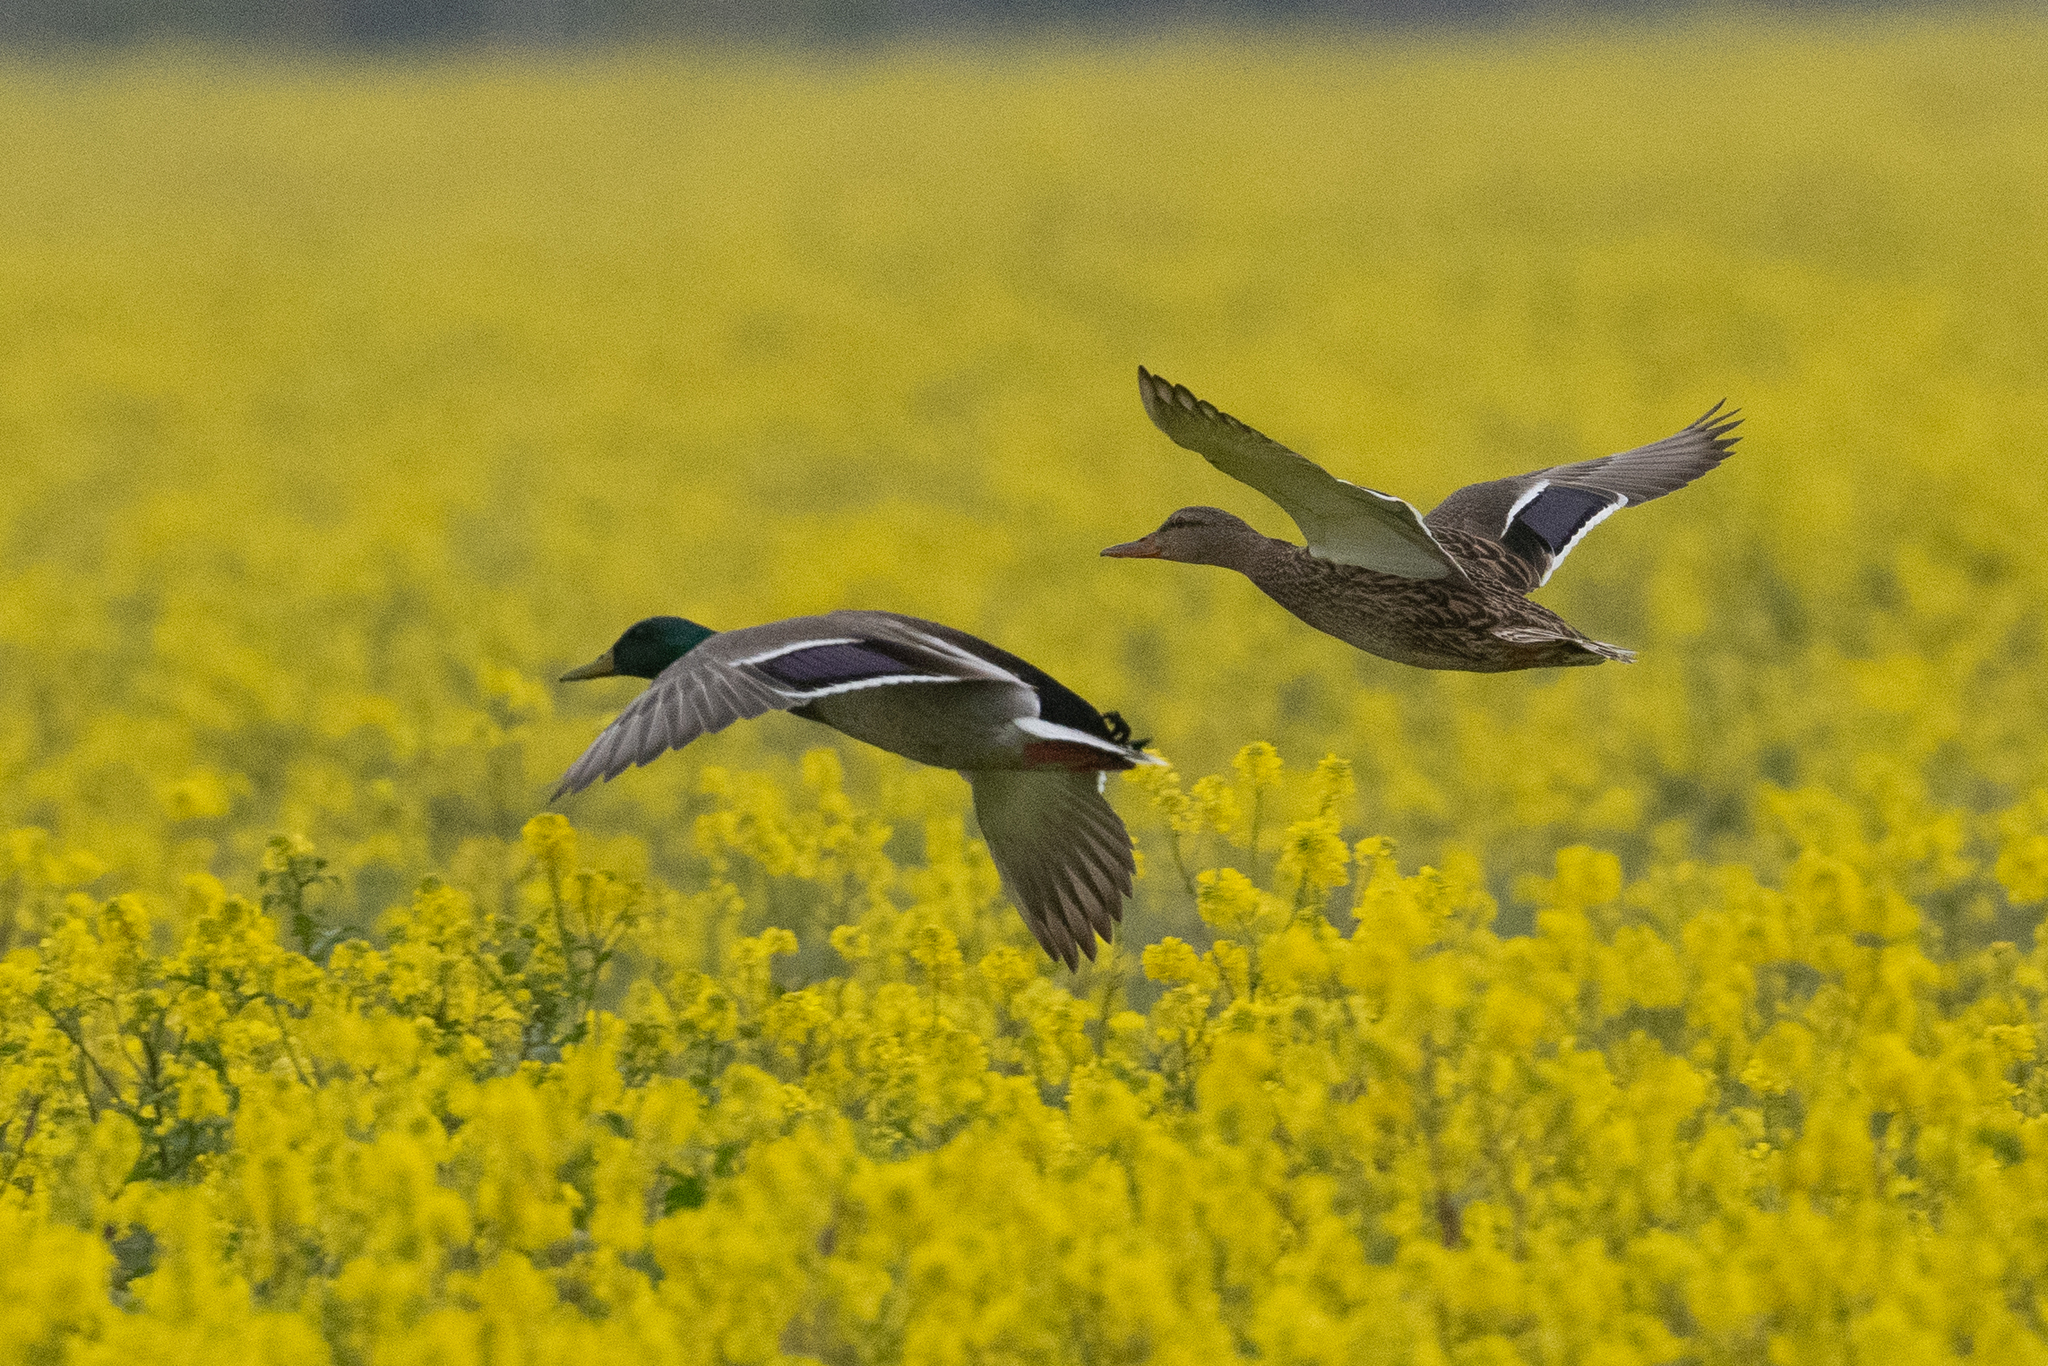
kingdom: Animalia
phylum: Chordata
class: Aves
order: Anseriformes
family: Anatidae
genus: Anas
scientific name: Anas platyrhynchos
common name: Mallard
